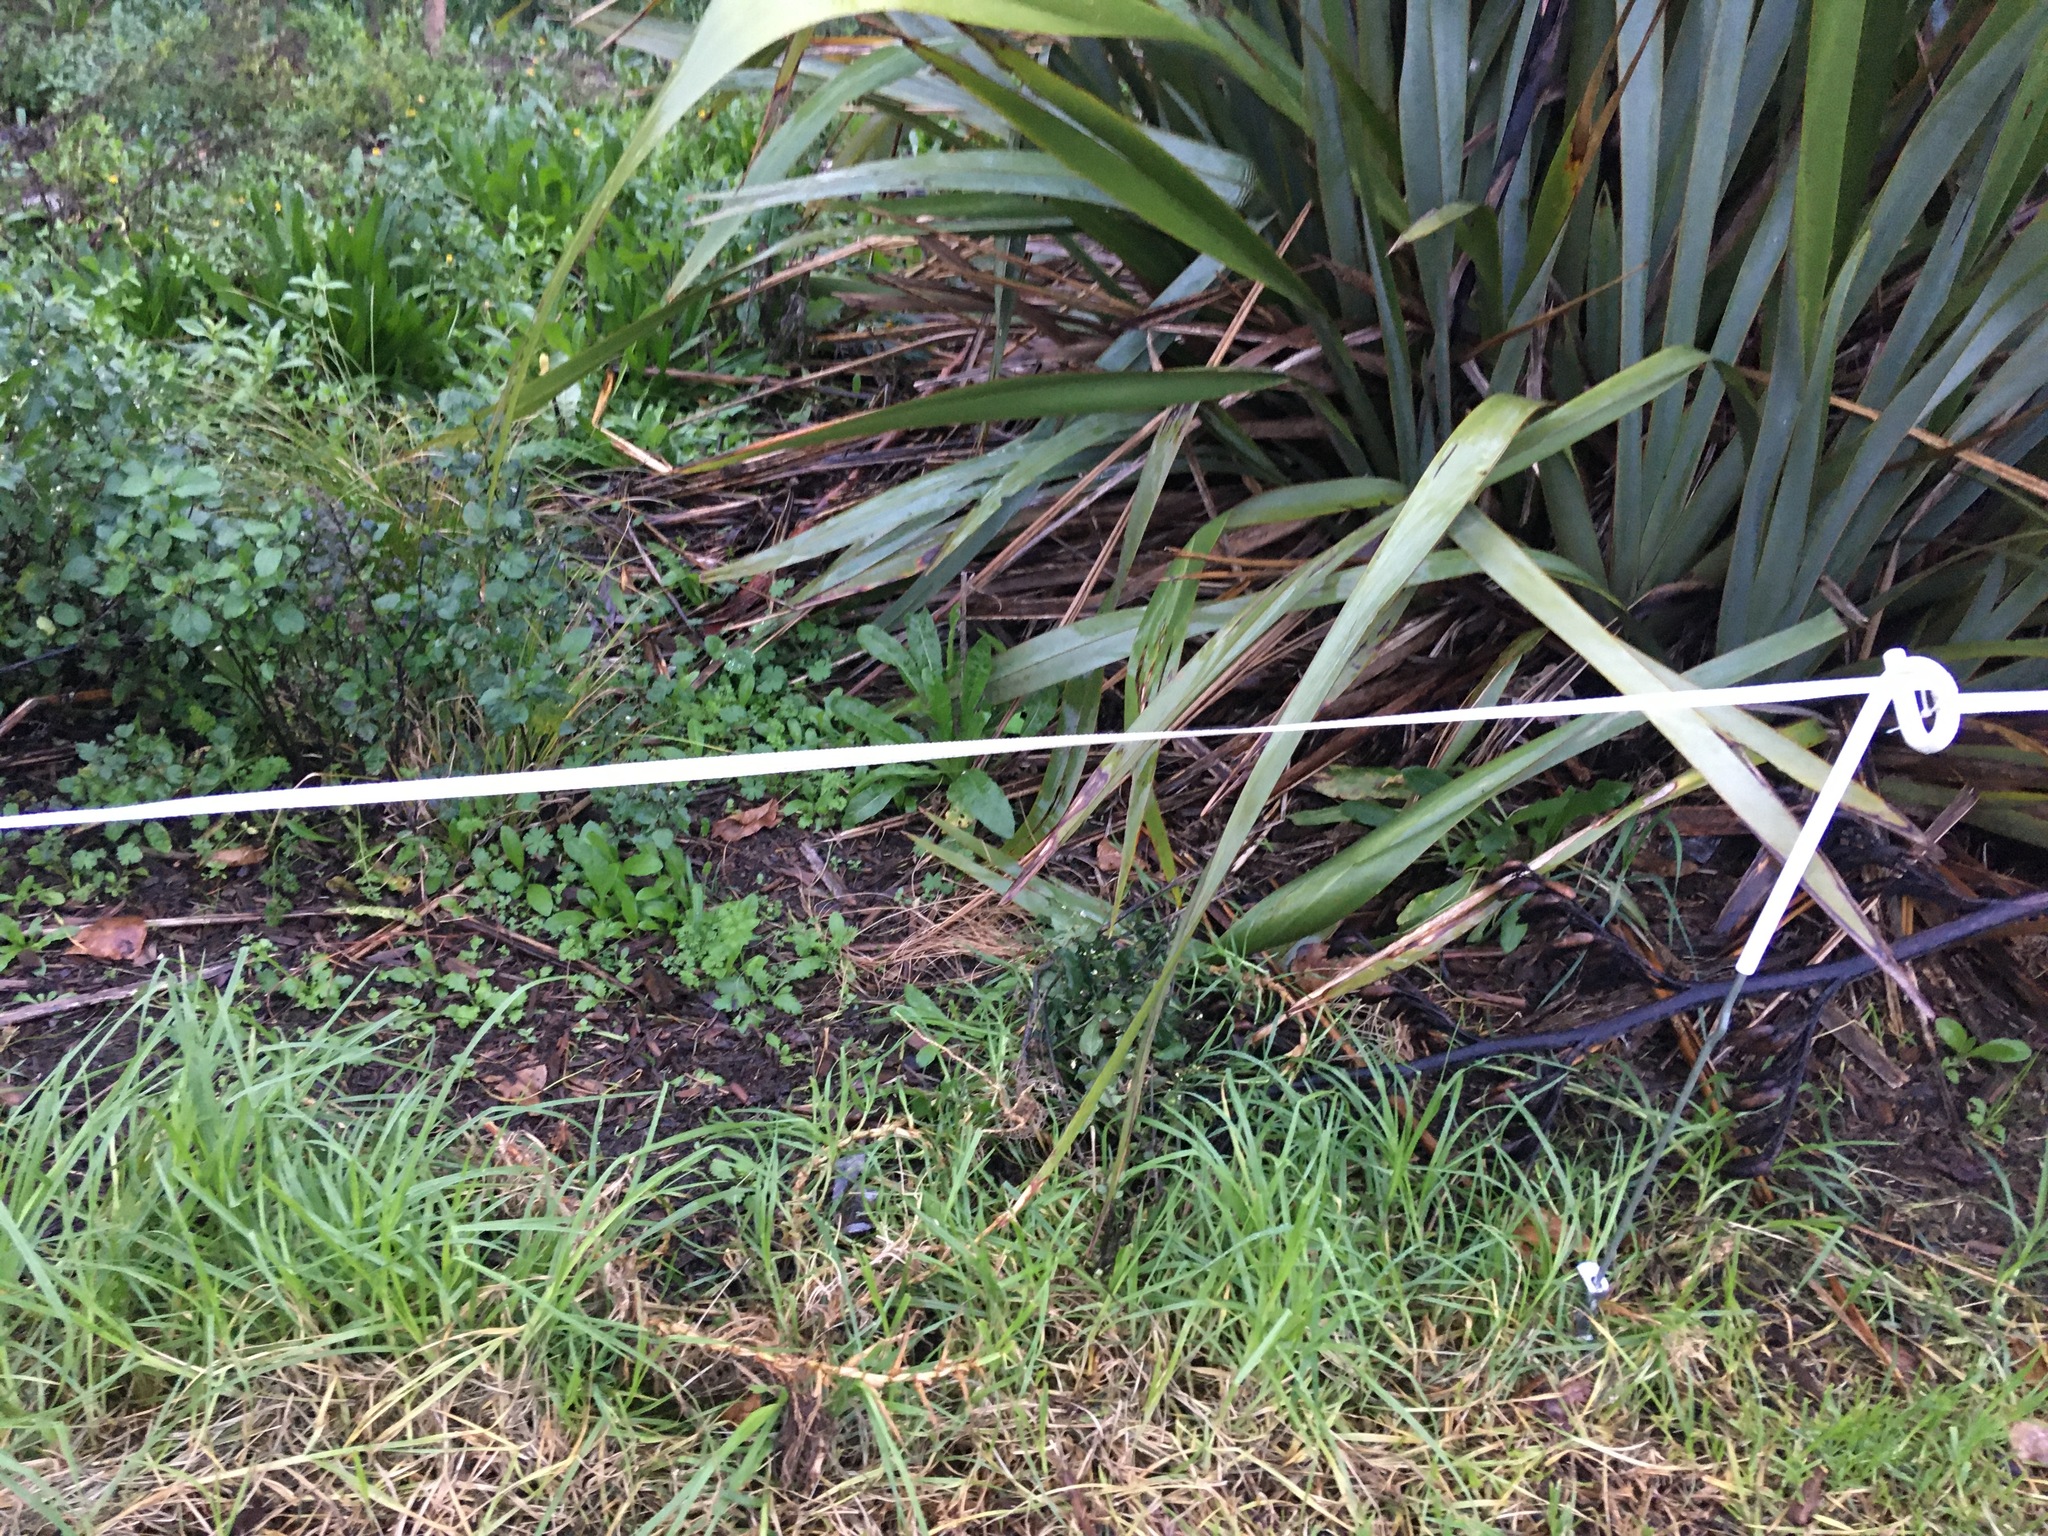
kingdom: Plantae
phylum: Tracheophyta
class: Liliopsida
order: Poales
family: Poaceae
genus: Cenchrus
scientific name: Cenchrus clandestinus
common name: Kikuyugrass
